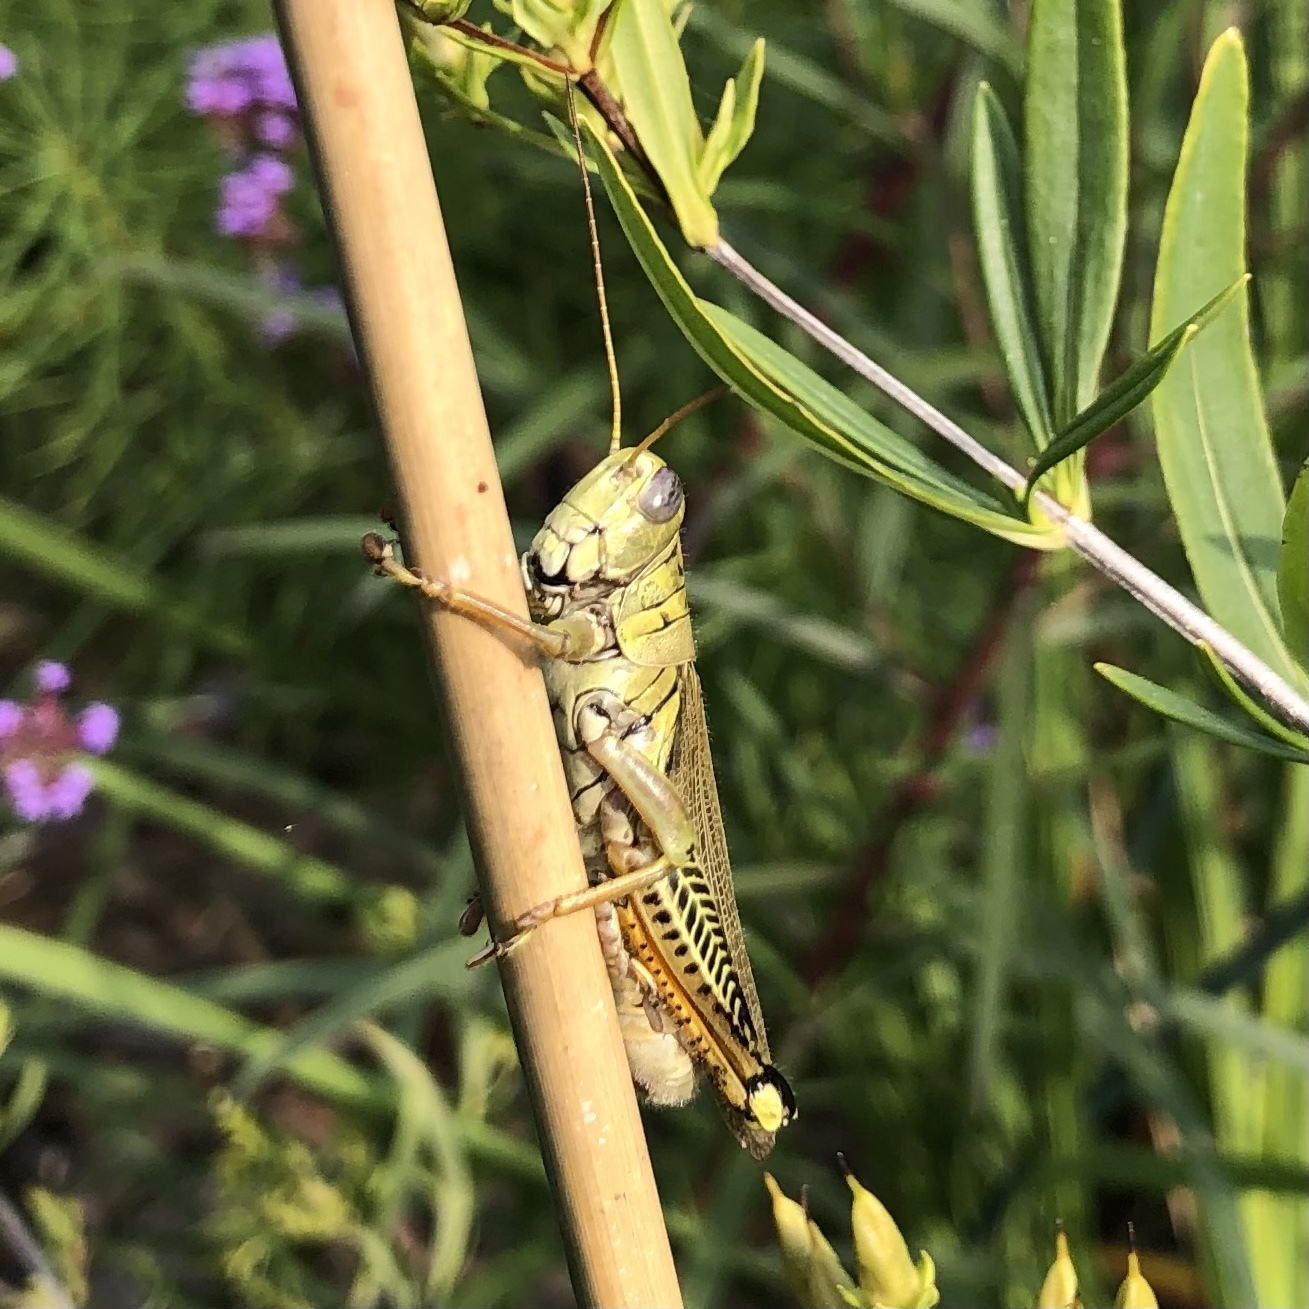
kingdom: Animalia
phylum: Arthropoda
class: Insecta
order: Orthoptera
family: Acrididae
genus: Melanoplus
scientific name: Melanoplus differentialis
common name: Differential grasshopper
